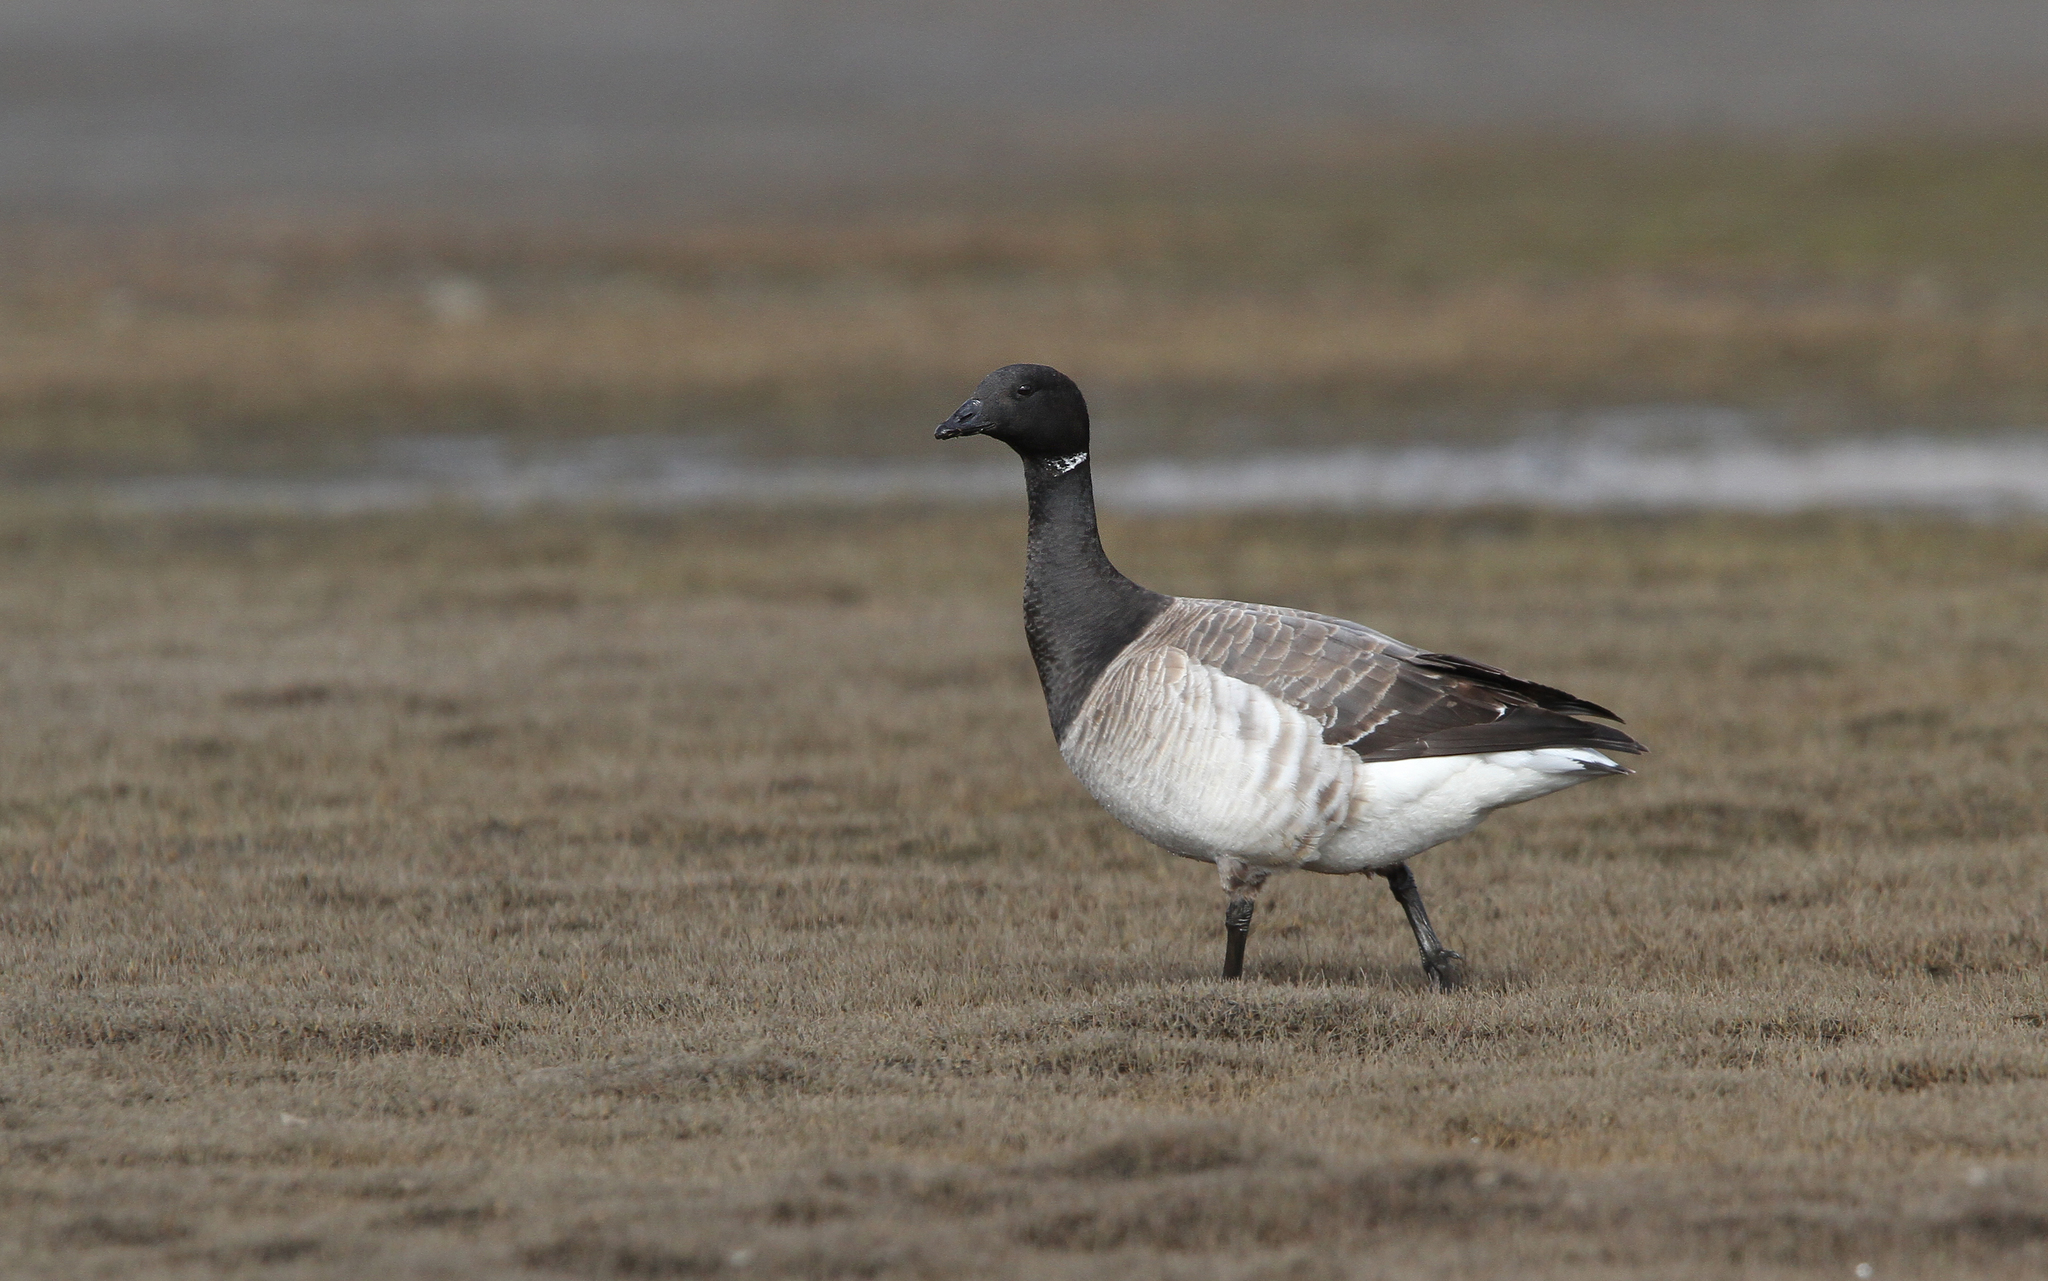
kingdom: Animalia
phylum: Chordata
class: Aves
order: Anseriformes
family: Anatidae
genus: Branta
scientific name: Branta bernicla
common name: Brant goose
